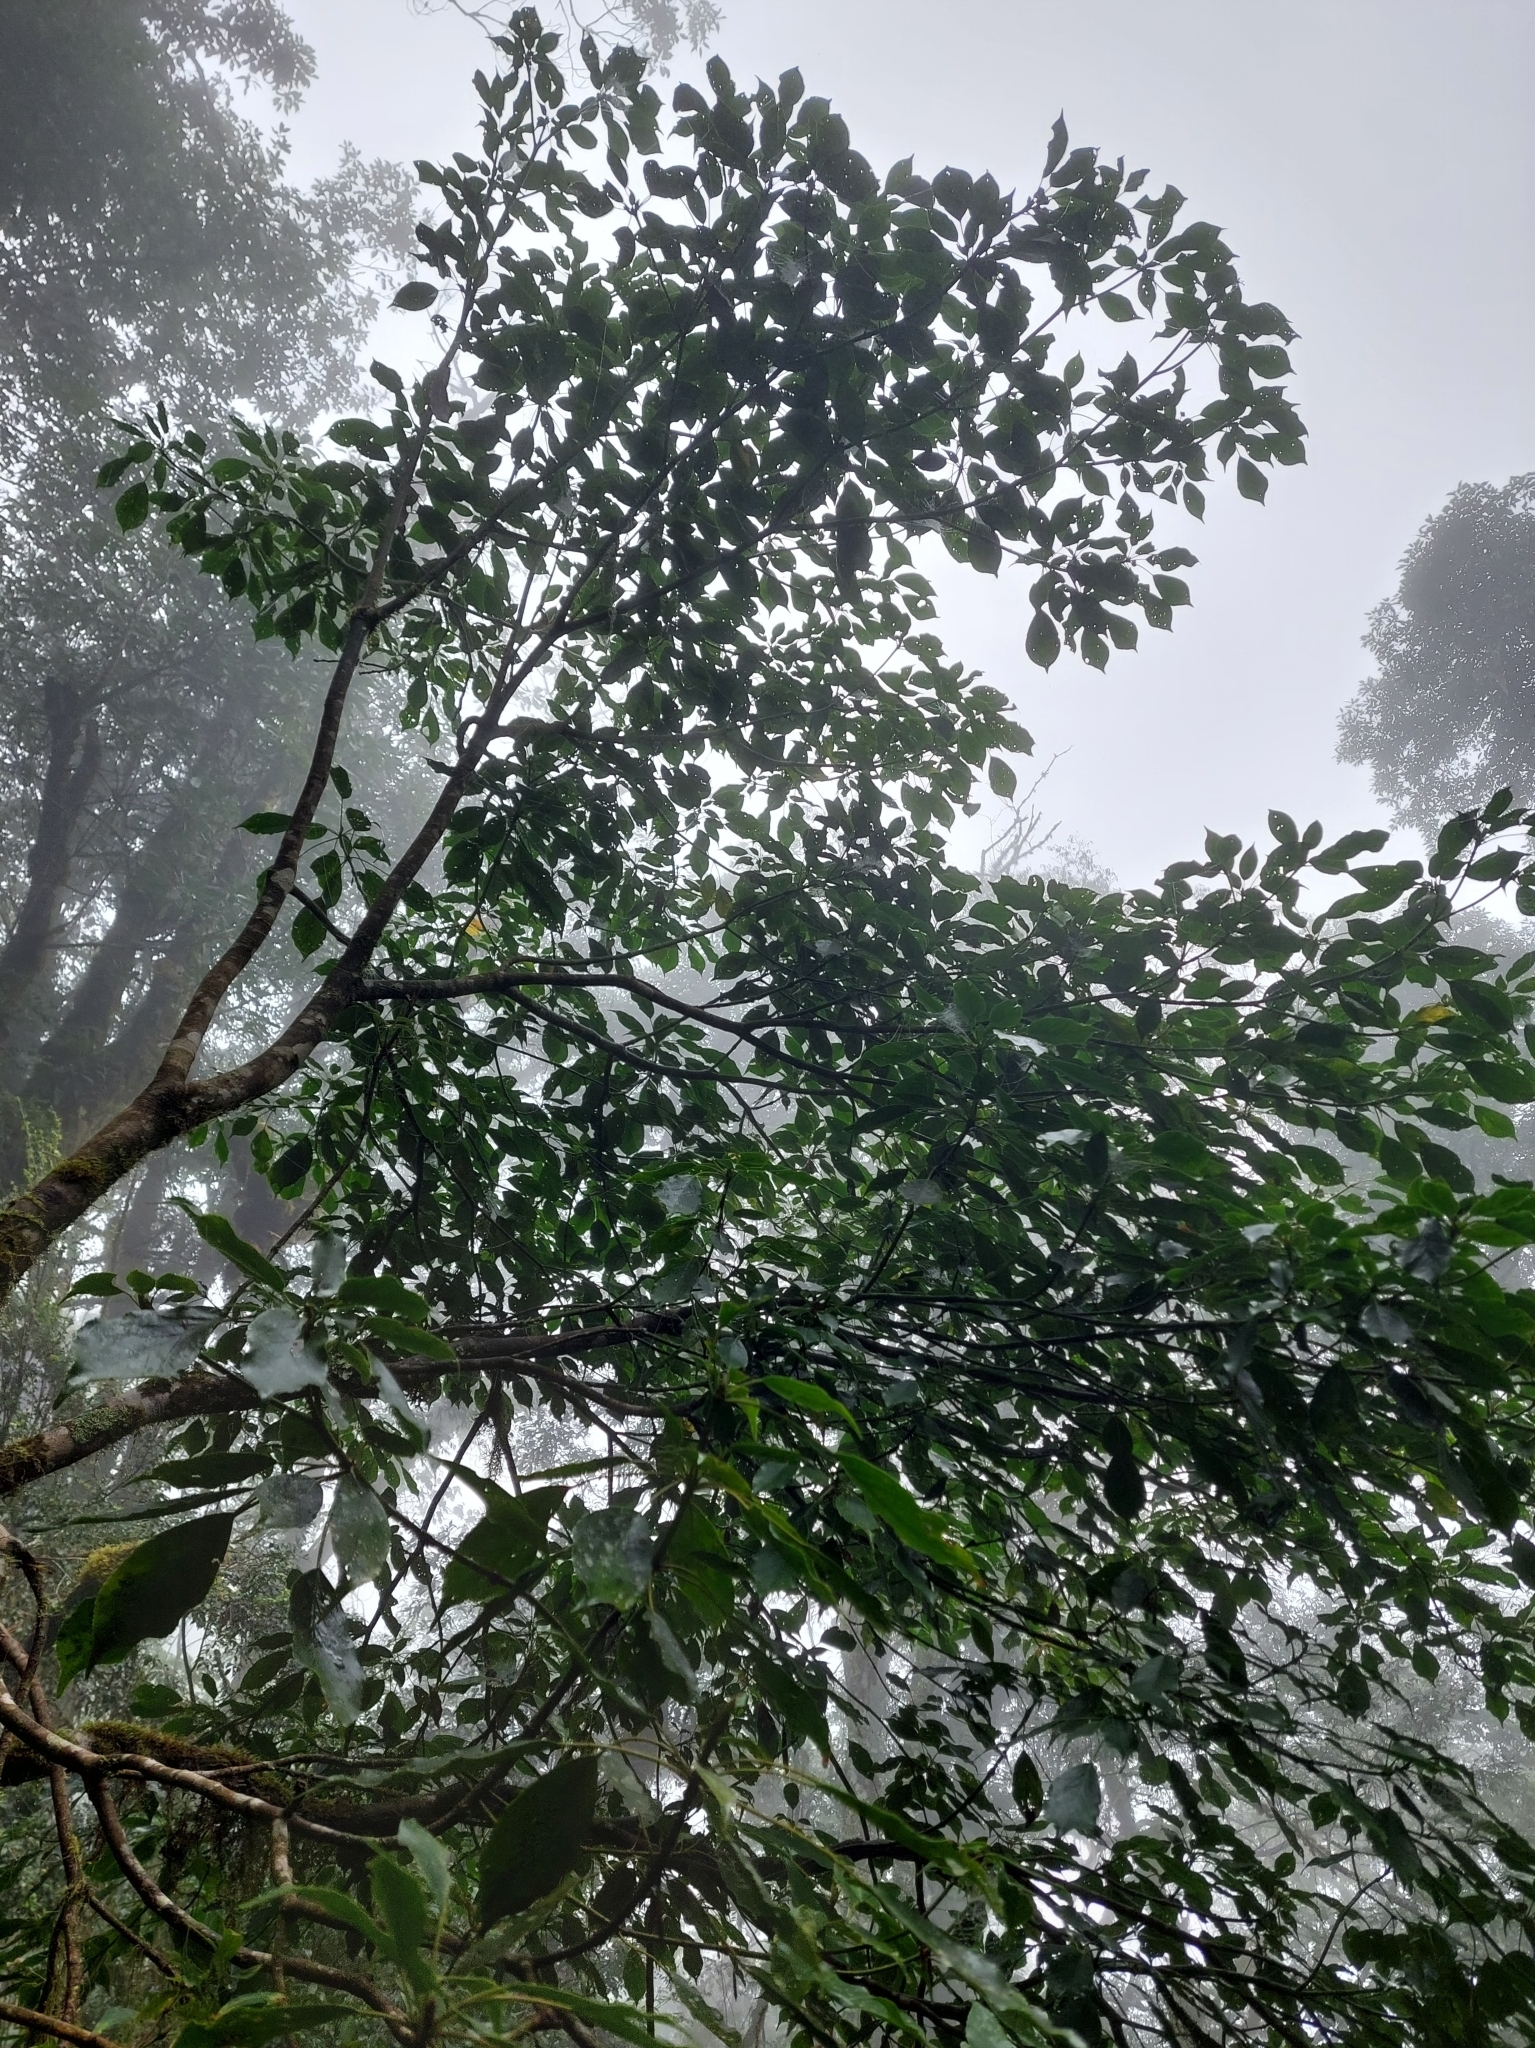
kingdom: Plantae
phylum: Tracheophyta
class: Magnoliopsida
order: Trochodendrales
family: Trochodendraceae
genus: Trochodendron
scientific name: Trochodendron aralioides
